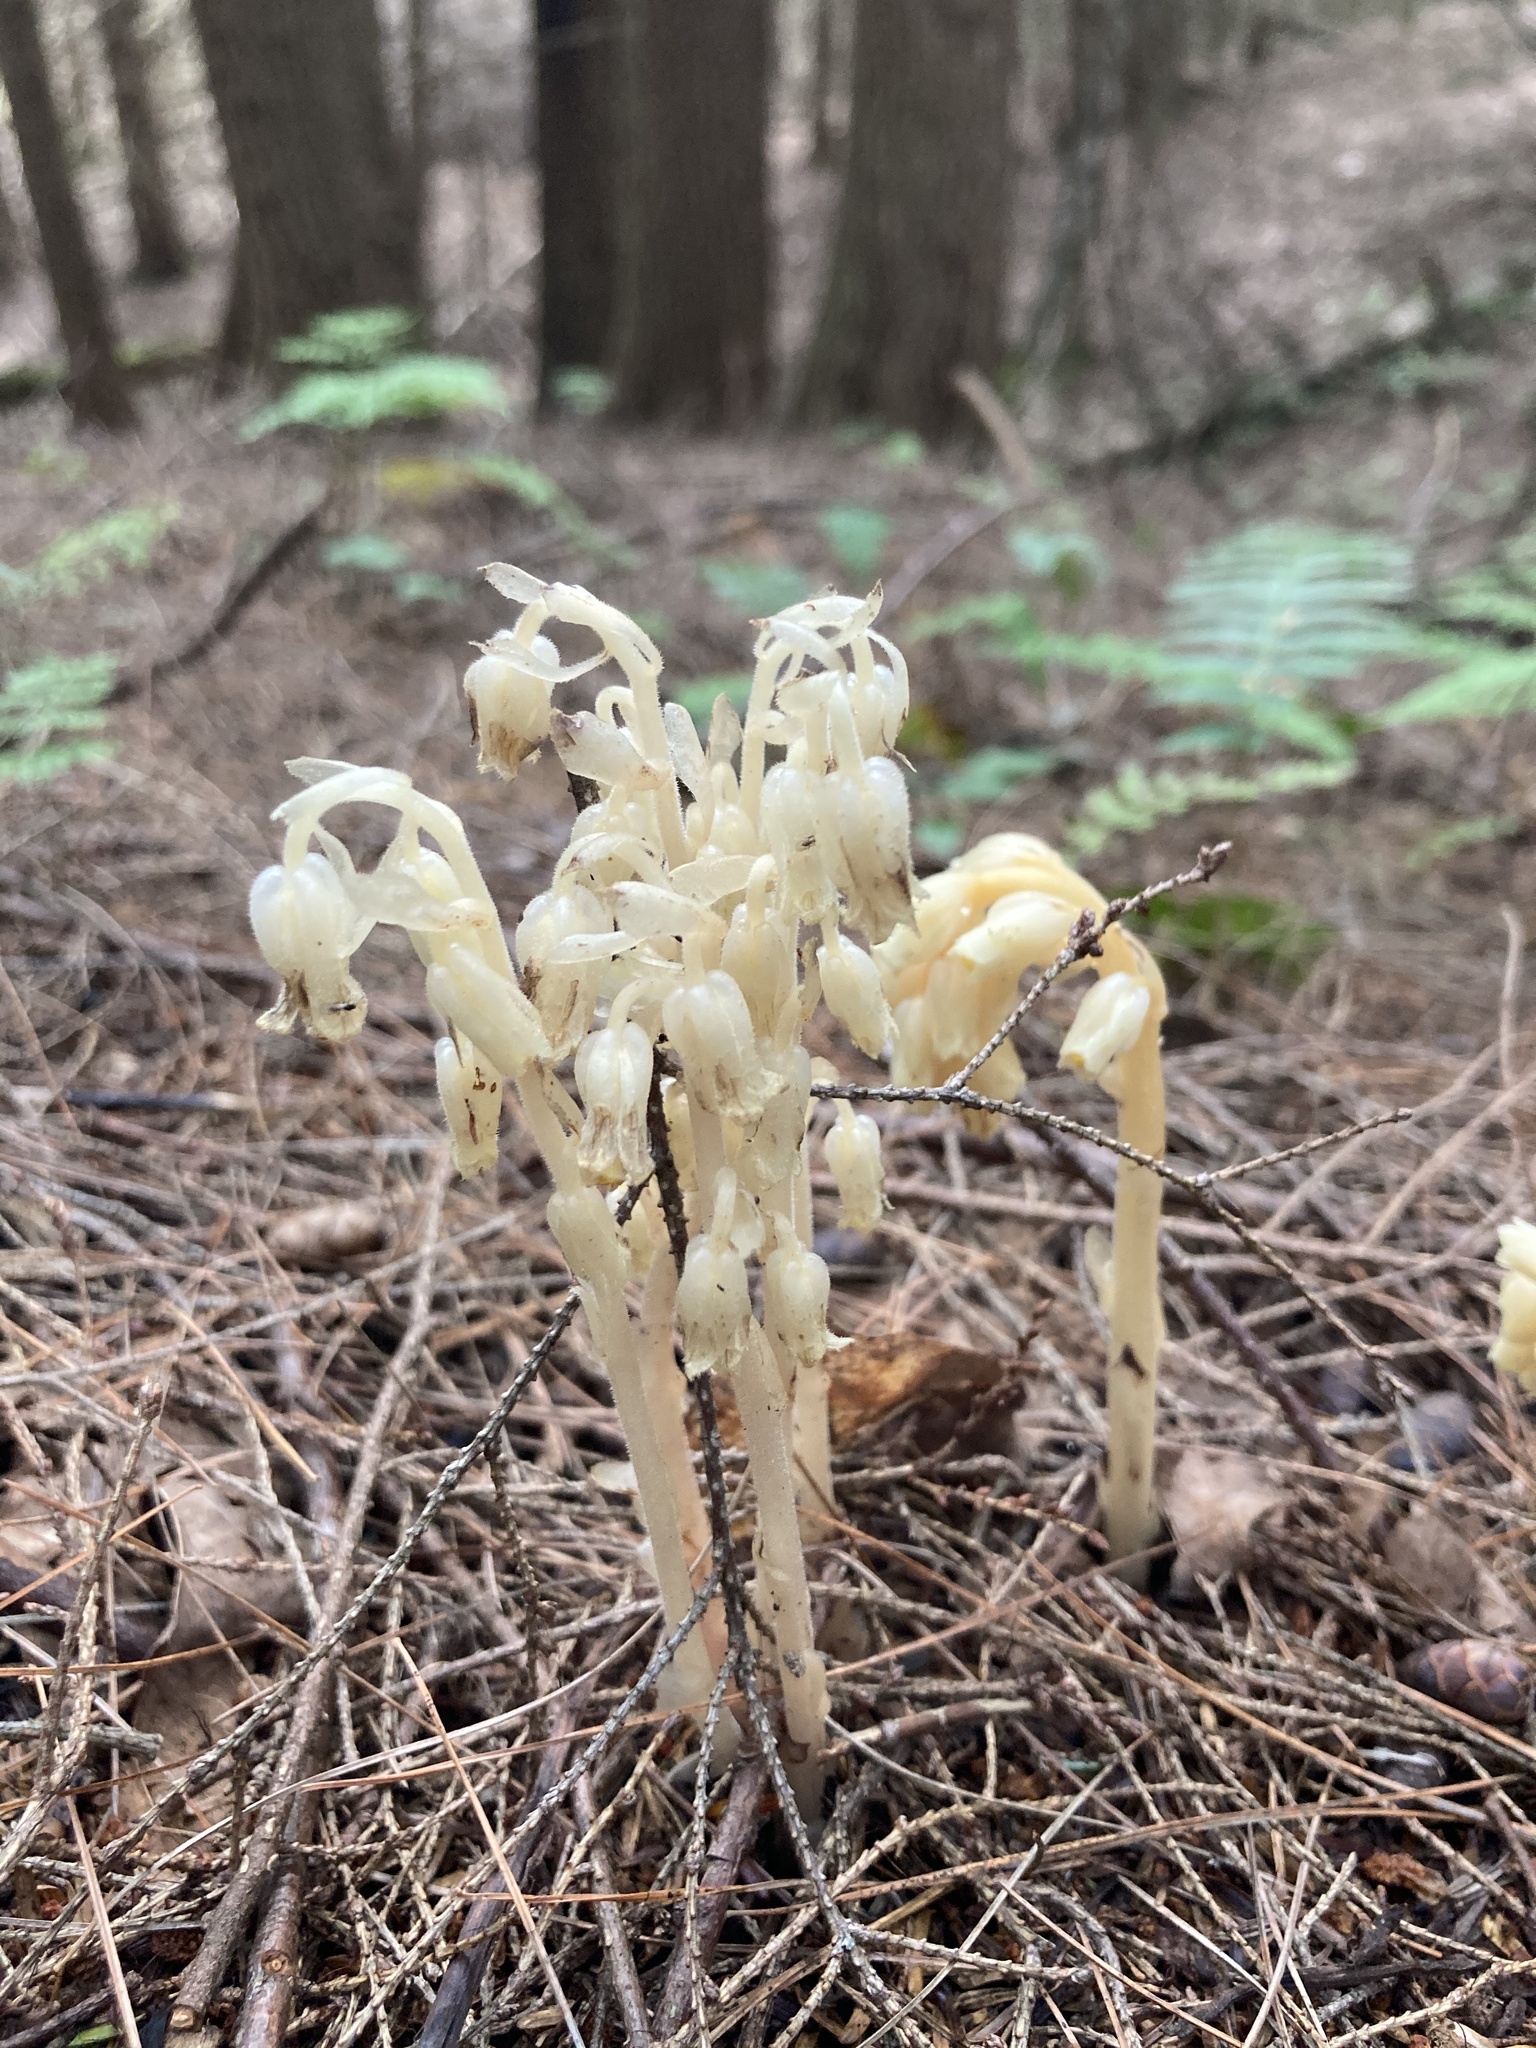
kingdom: Plantae
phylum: Tracheophyta
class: Magnoliopsida
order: Ericales
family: Ericaceae
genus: Hypopitys
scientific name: Hypopitys monotropa
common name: Yellow bird's-nest
